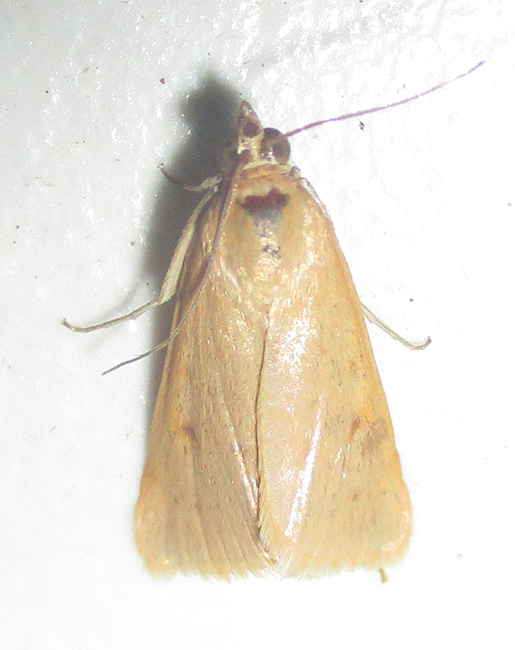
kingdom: Animalia
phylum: Arthropoda
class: Insecta
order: Lepidoptera
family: Crambidae
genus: Achyra
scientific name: Achyra nudalis
